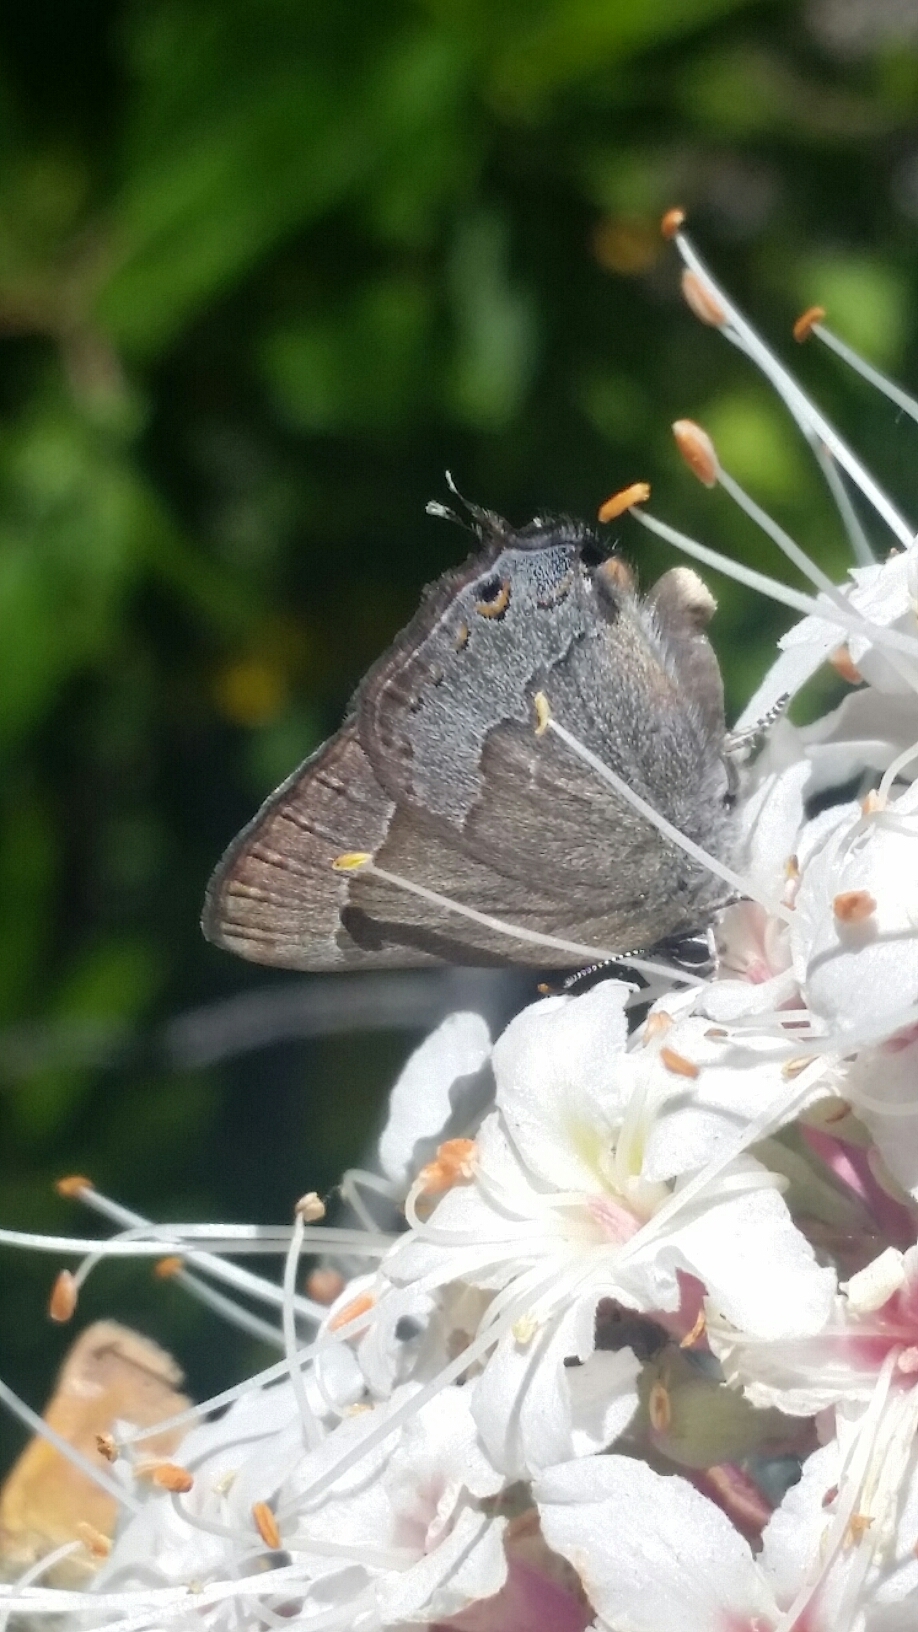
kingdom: Animalia
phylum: Arthropoda
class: Insecta
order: Lepidoptera
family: Lycaenidae
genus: Thecla
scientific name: Thecla tetra
